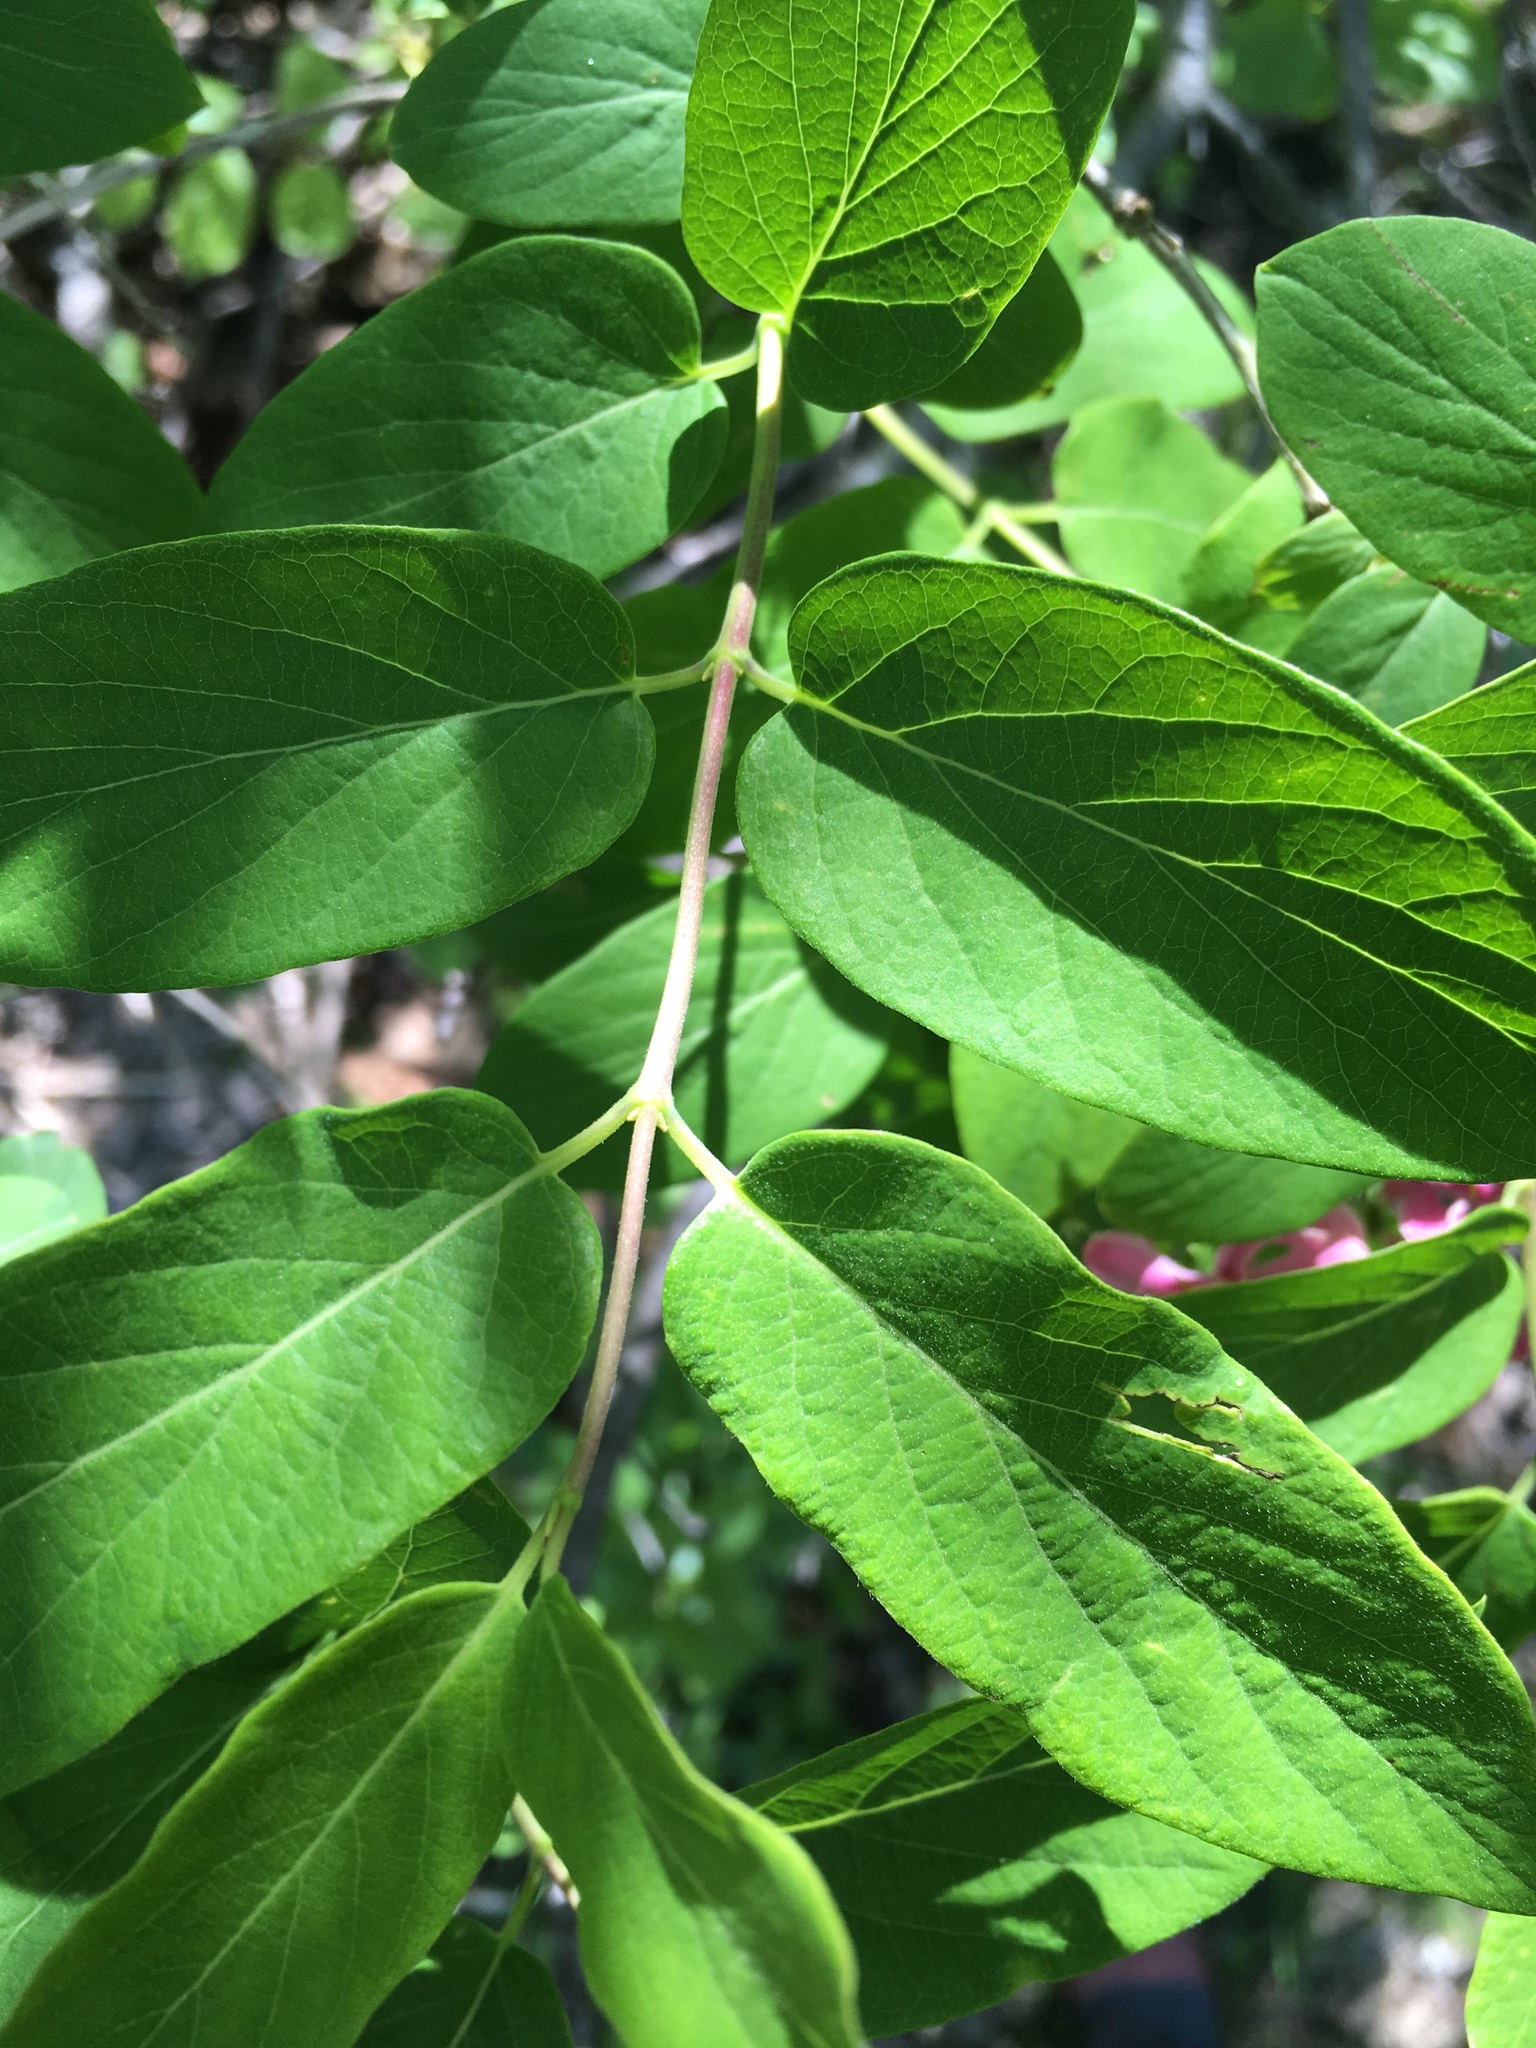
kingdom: Plantae
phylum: Tracheophyta
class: Magnoliopsida
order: Dipsacales
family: Caprifoliaceae
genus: Lonicera
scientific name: Lonicera tatarica
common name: Tatarian honeysuckle
